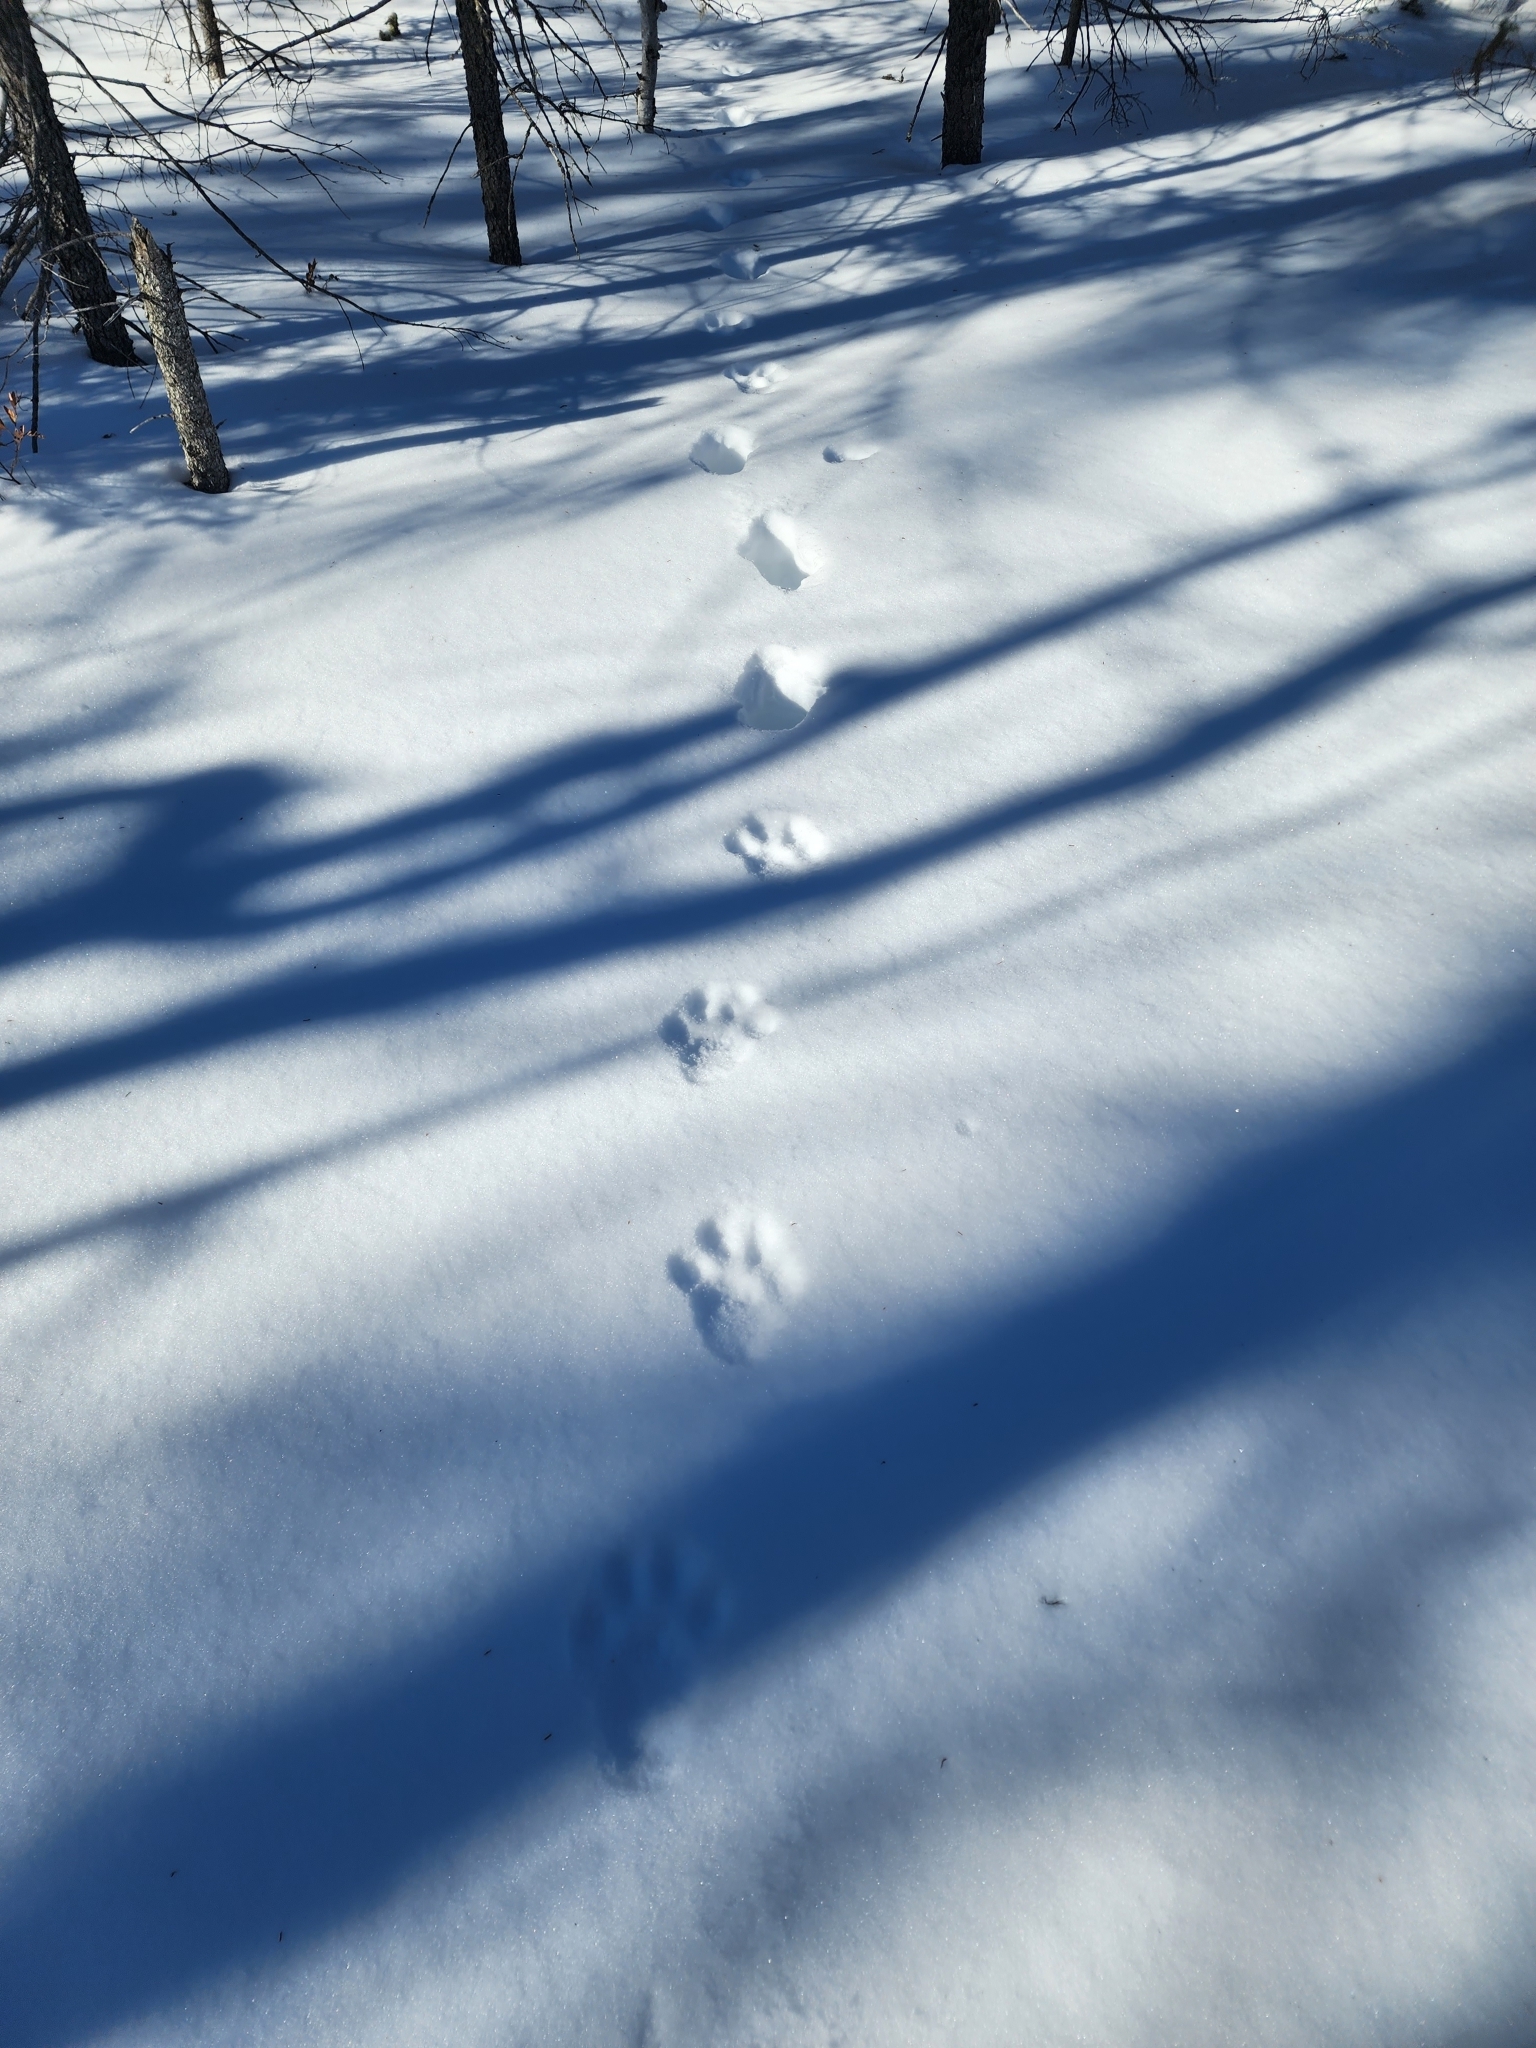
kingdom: Animalia
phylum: Chordata
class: Mammalia
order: Carnivora
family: Felidae
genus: Lynx
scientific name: Lynx canadensis
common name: Canadian lynx
